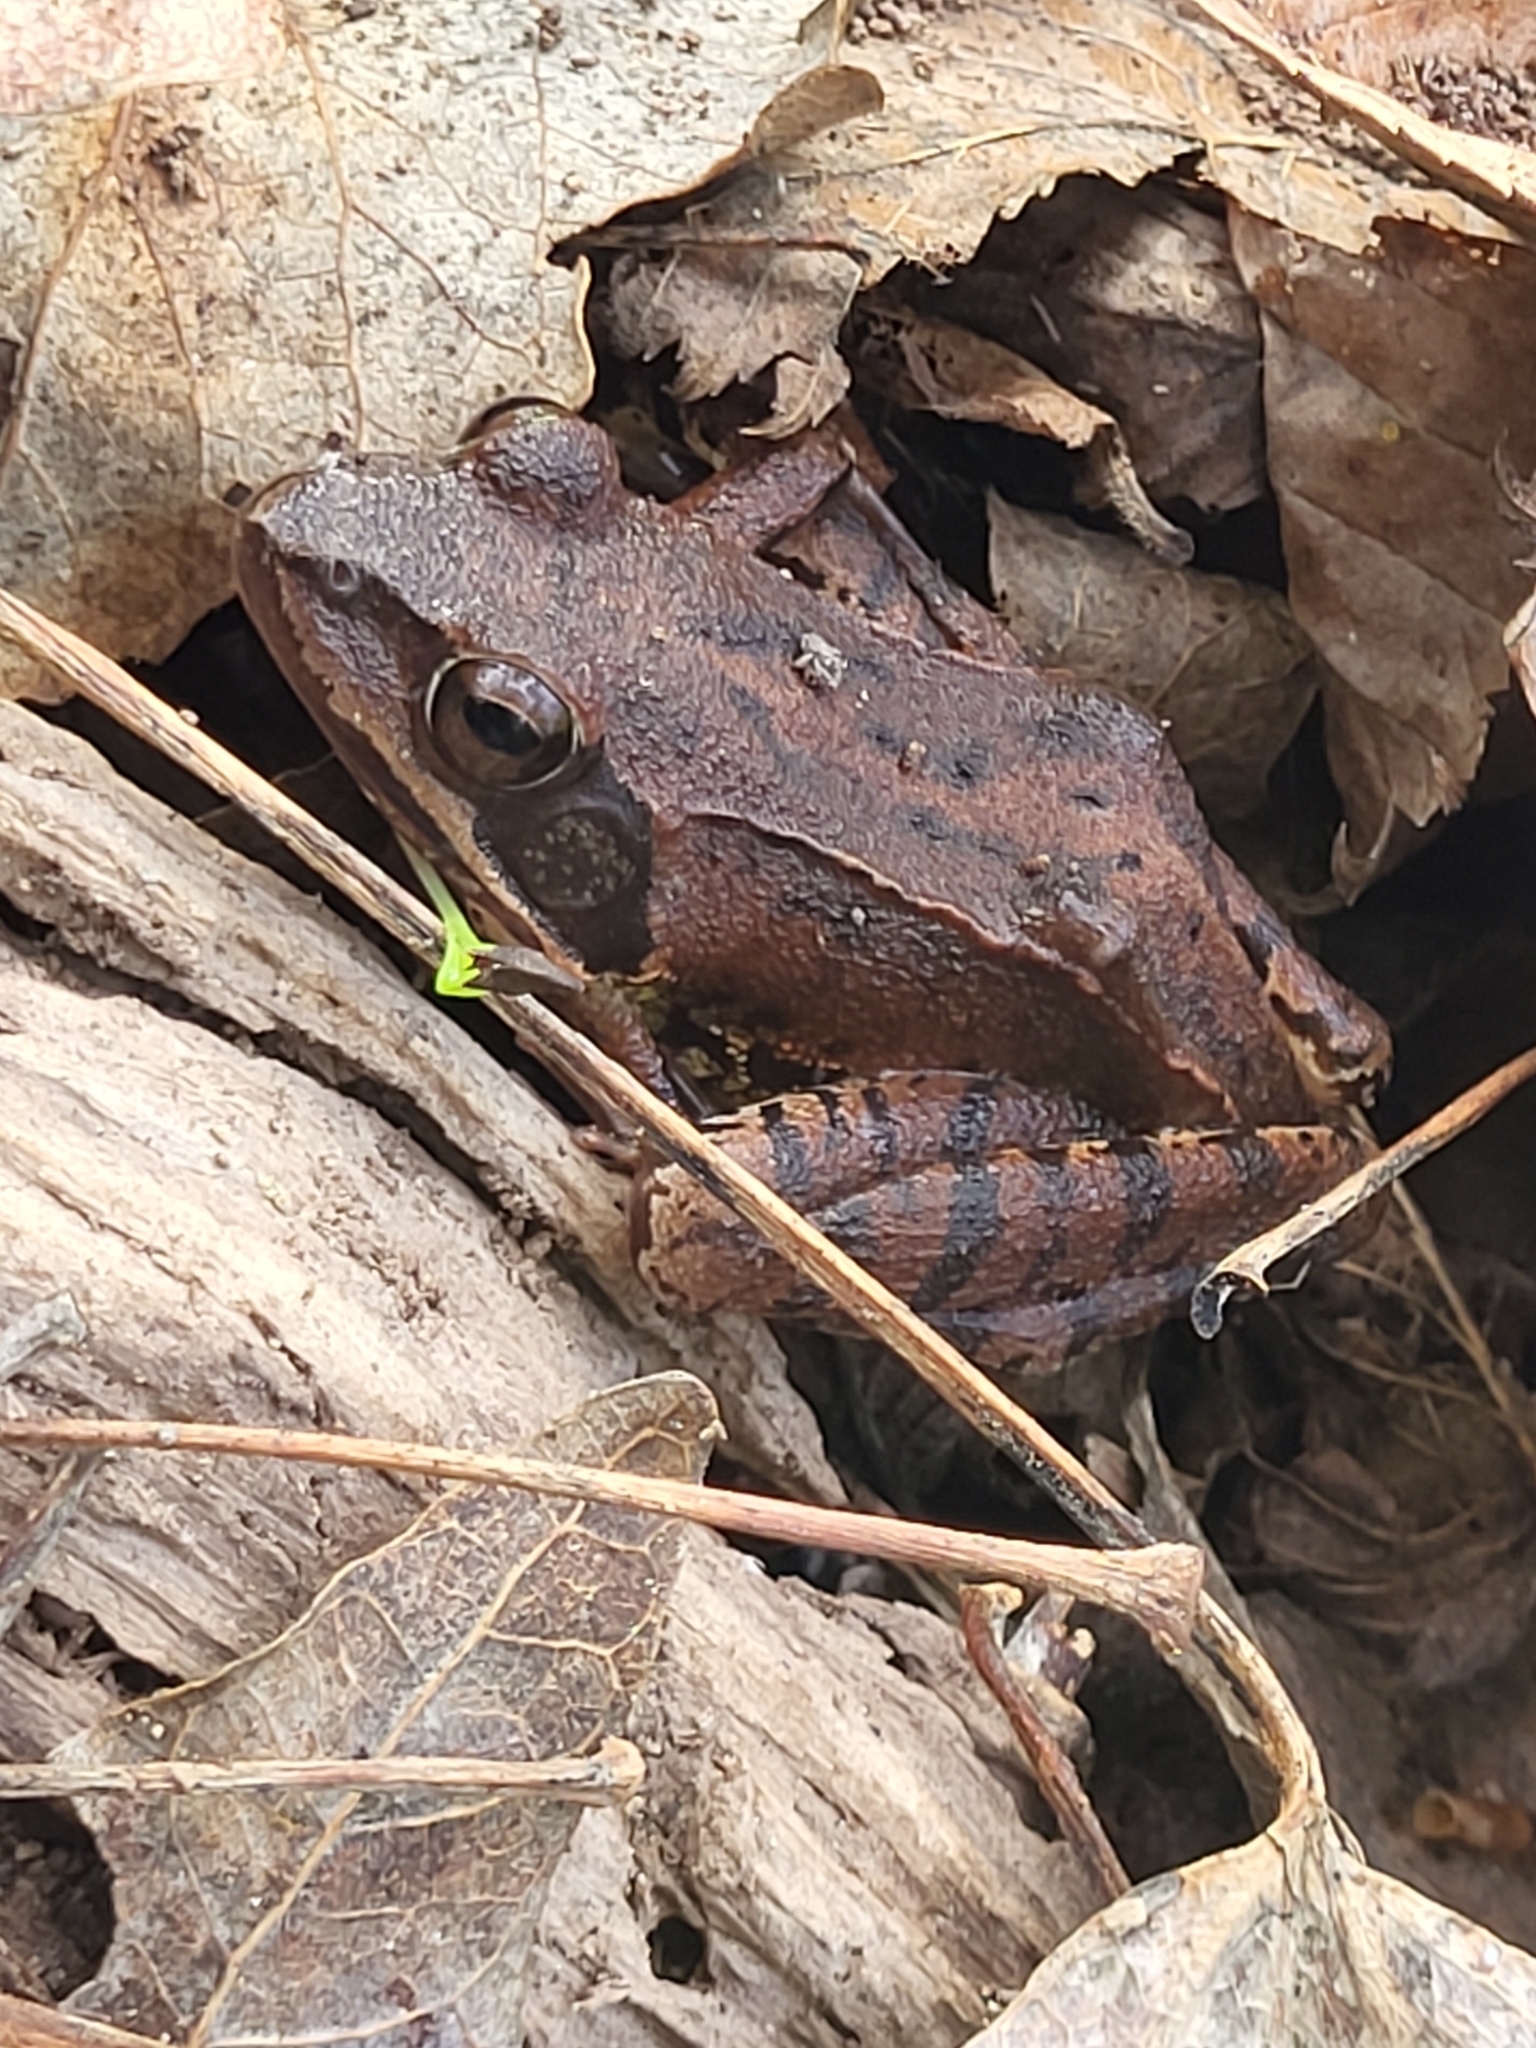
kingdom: Animalia
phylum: Chordata
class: Amphibia
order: Anura
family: Ranidae
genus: Rana
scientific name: Rana dalmatina
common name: Agile frog
